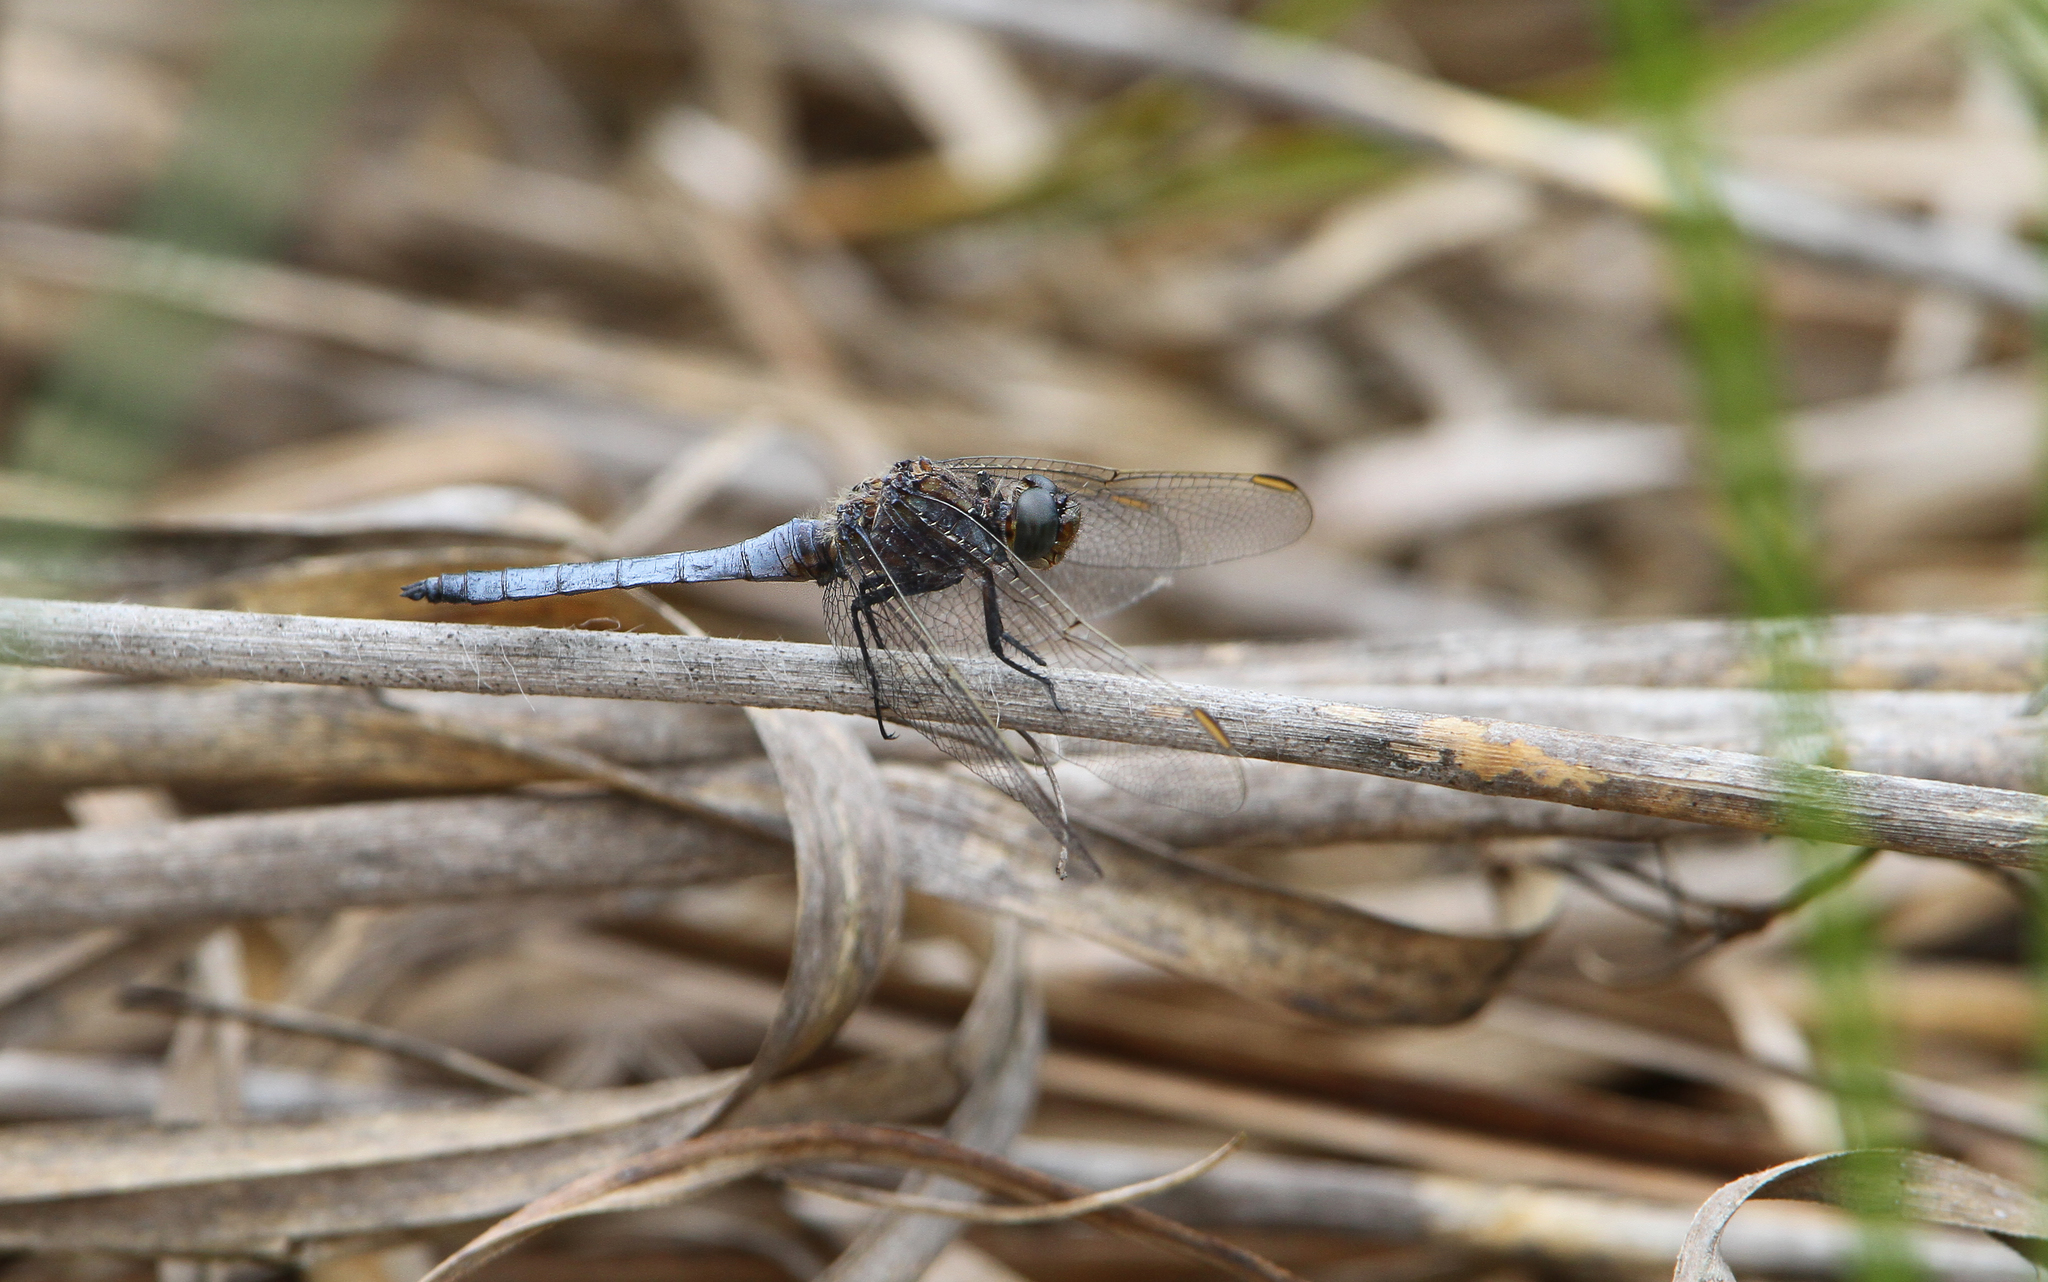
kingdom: Animalia
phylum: Arthropoda
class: Insecta
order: Odonata
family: Libellulidae
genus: Orthetrum
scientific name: Orthetrum coerulescens
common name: Keeled skimmer
